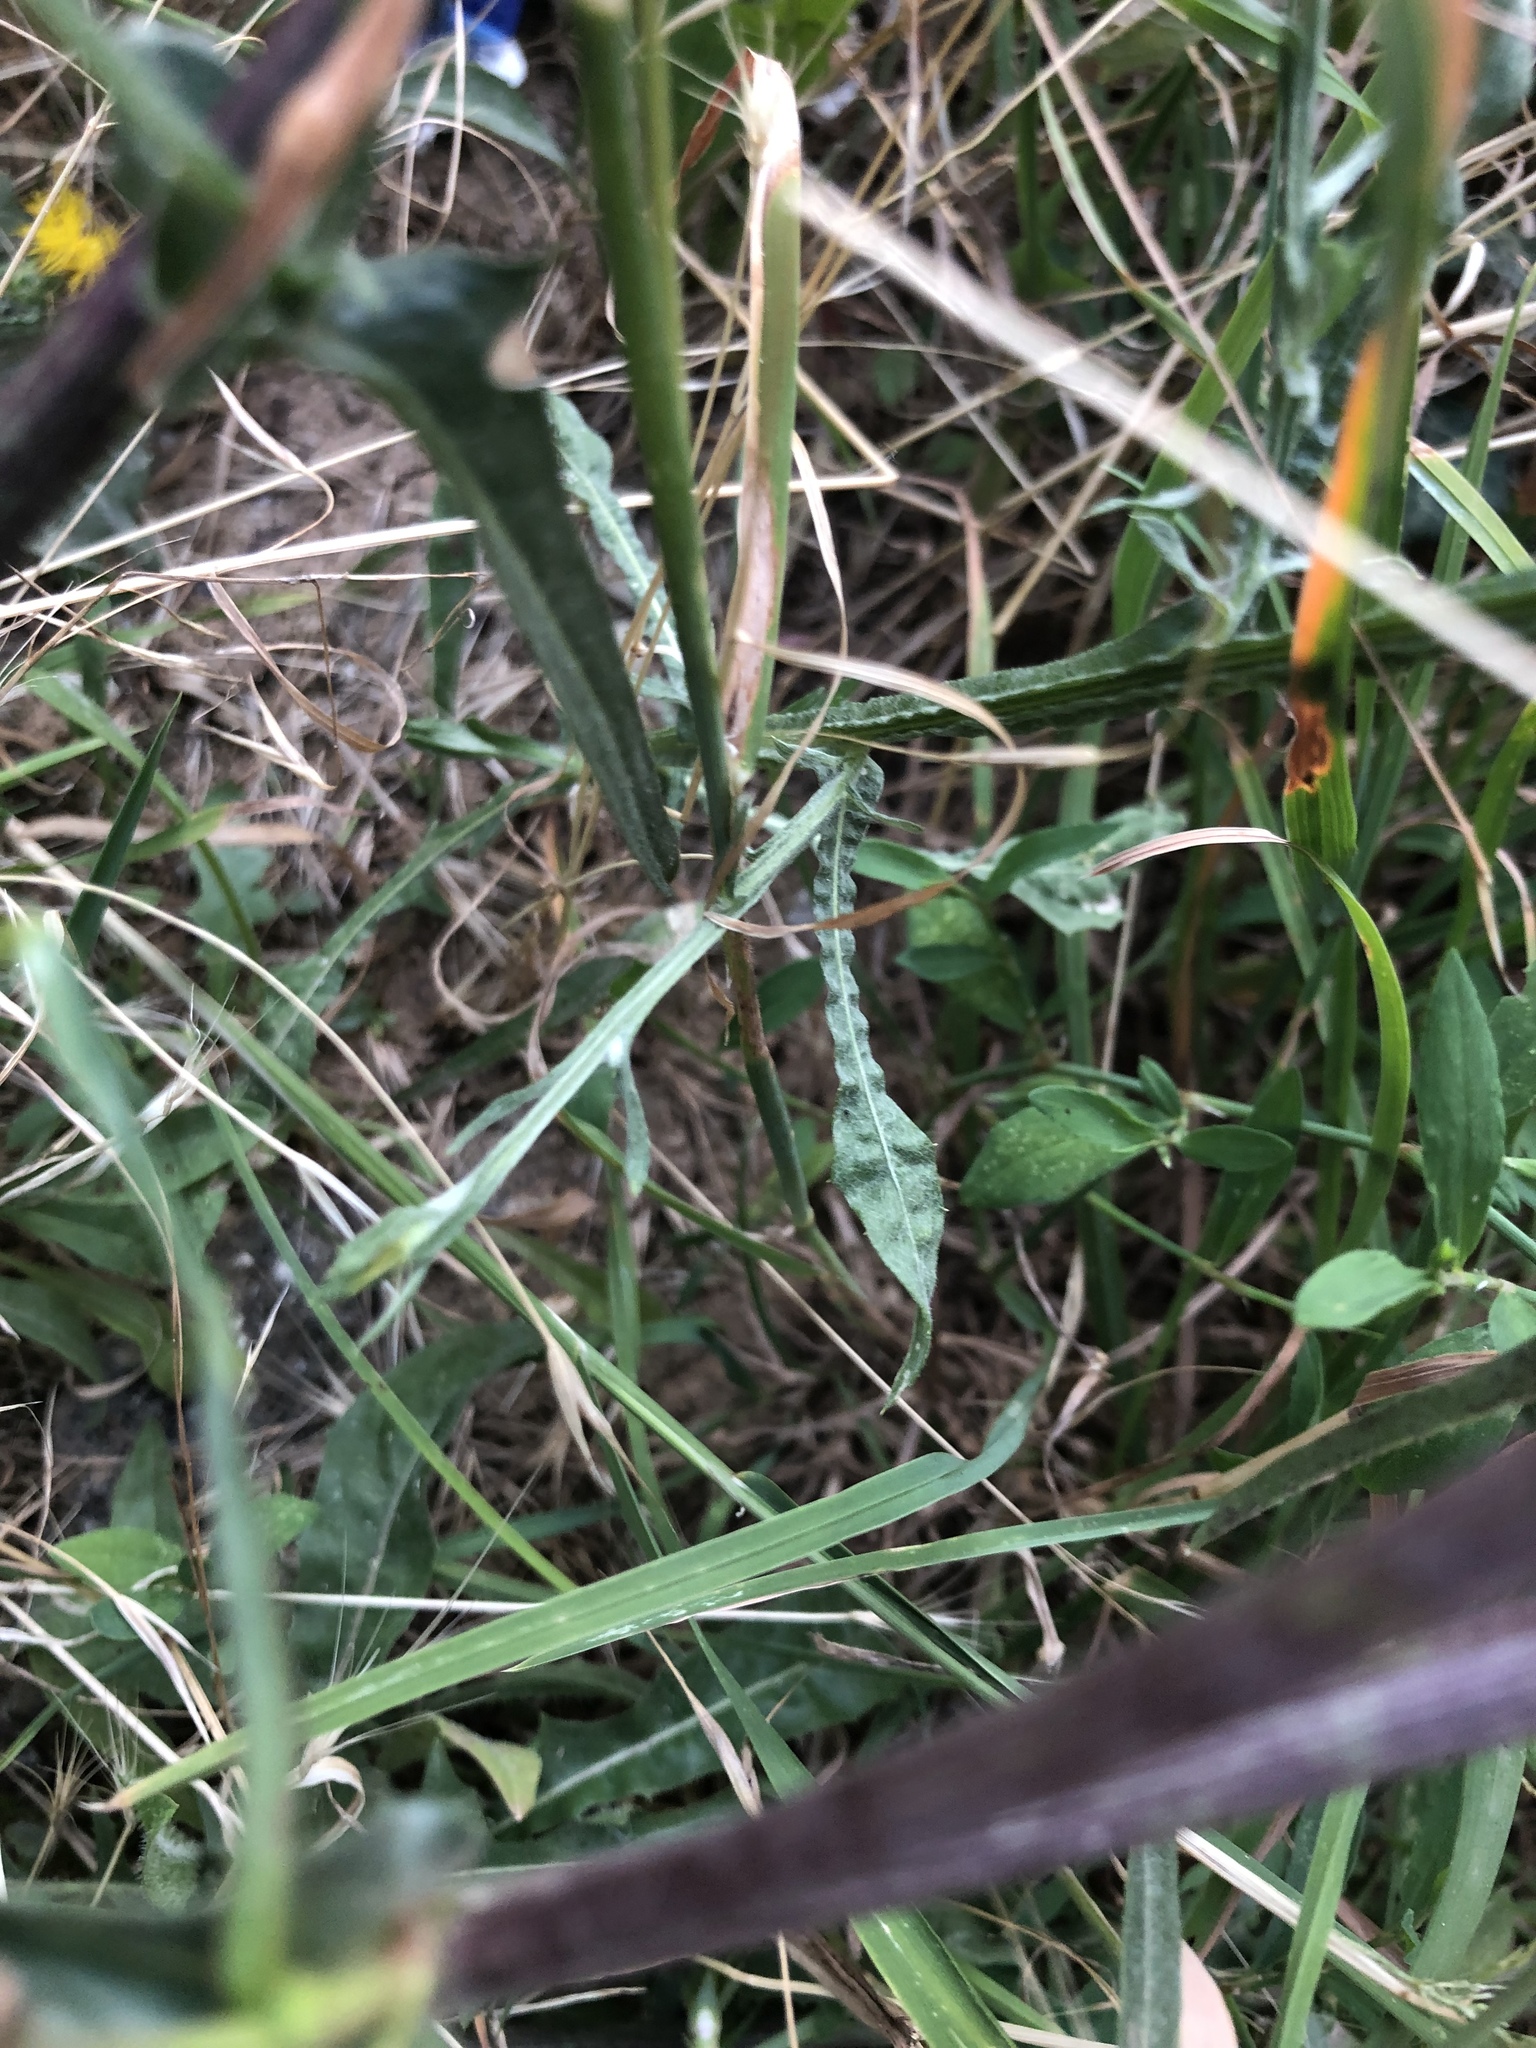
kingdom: Plantae
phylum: Tracheophyta
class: Magnoliopsida
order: Asterales
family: Asteraceae
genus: Centaurea
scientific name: Centaurea solstitialis
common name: Yellow star-thistle
